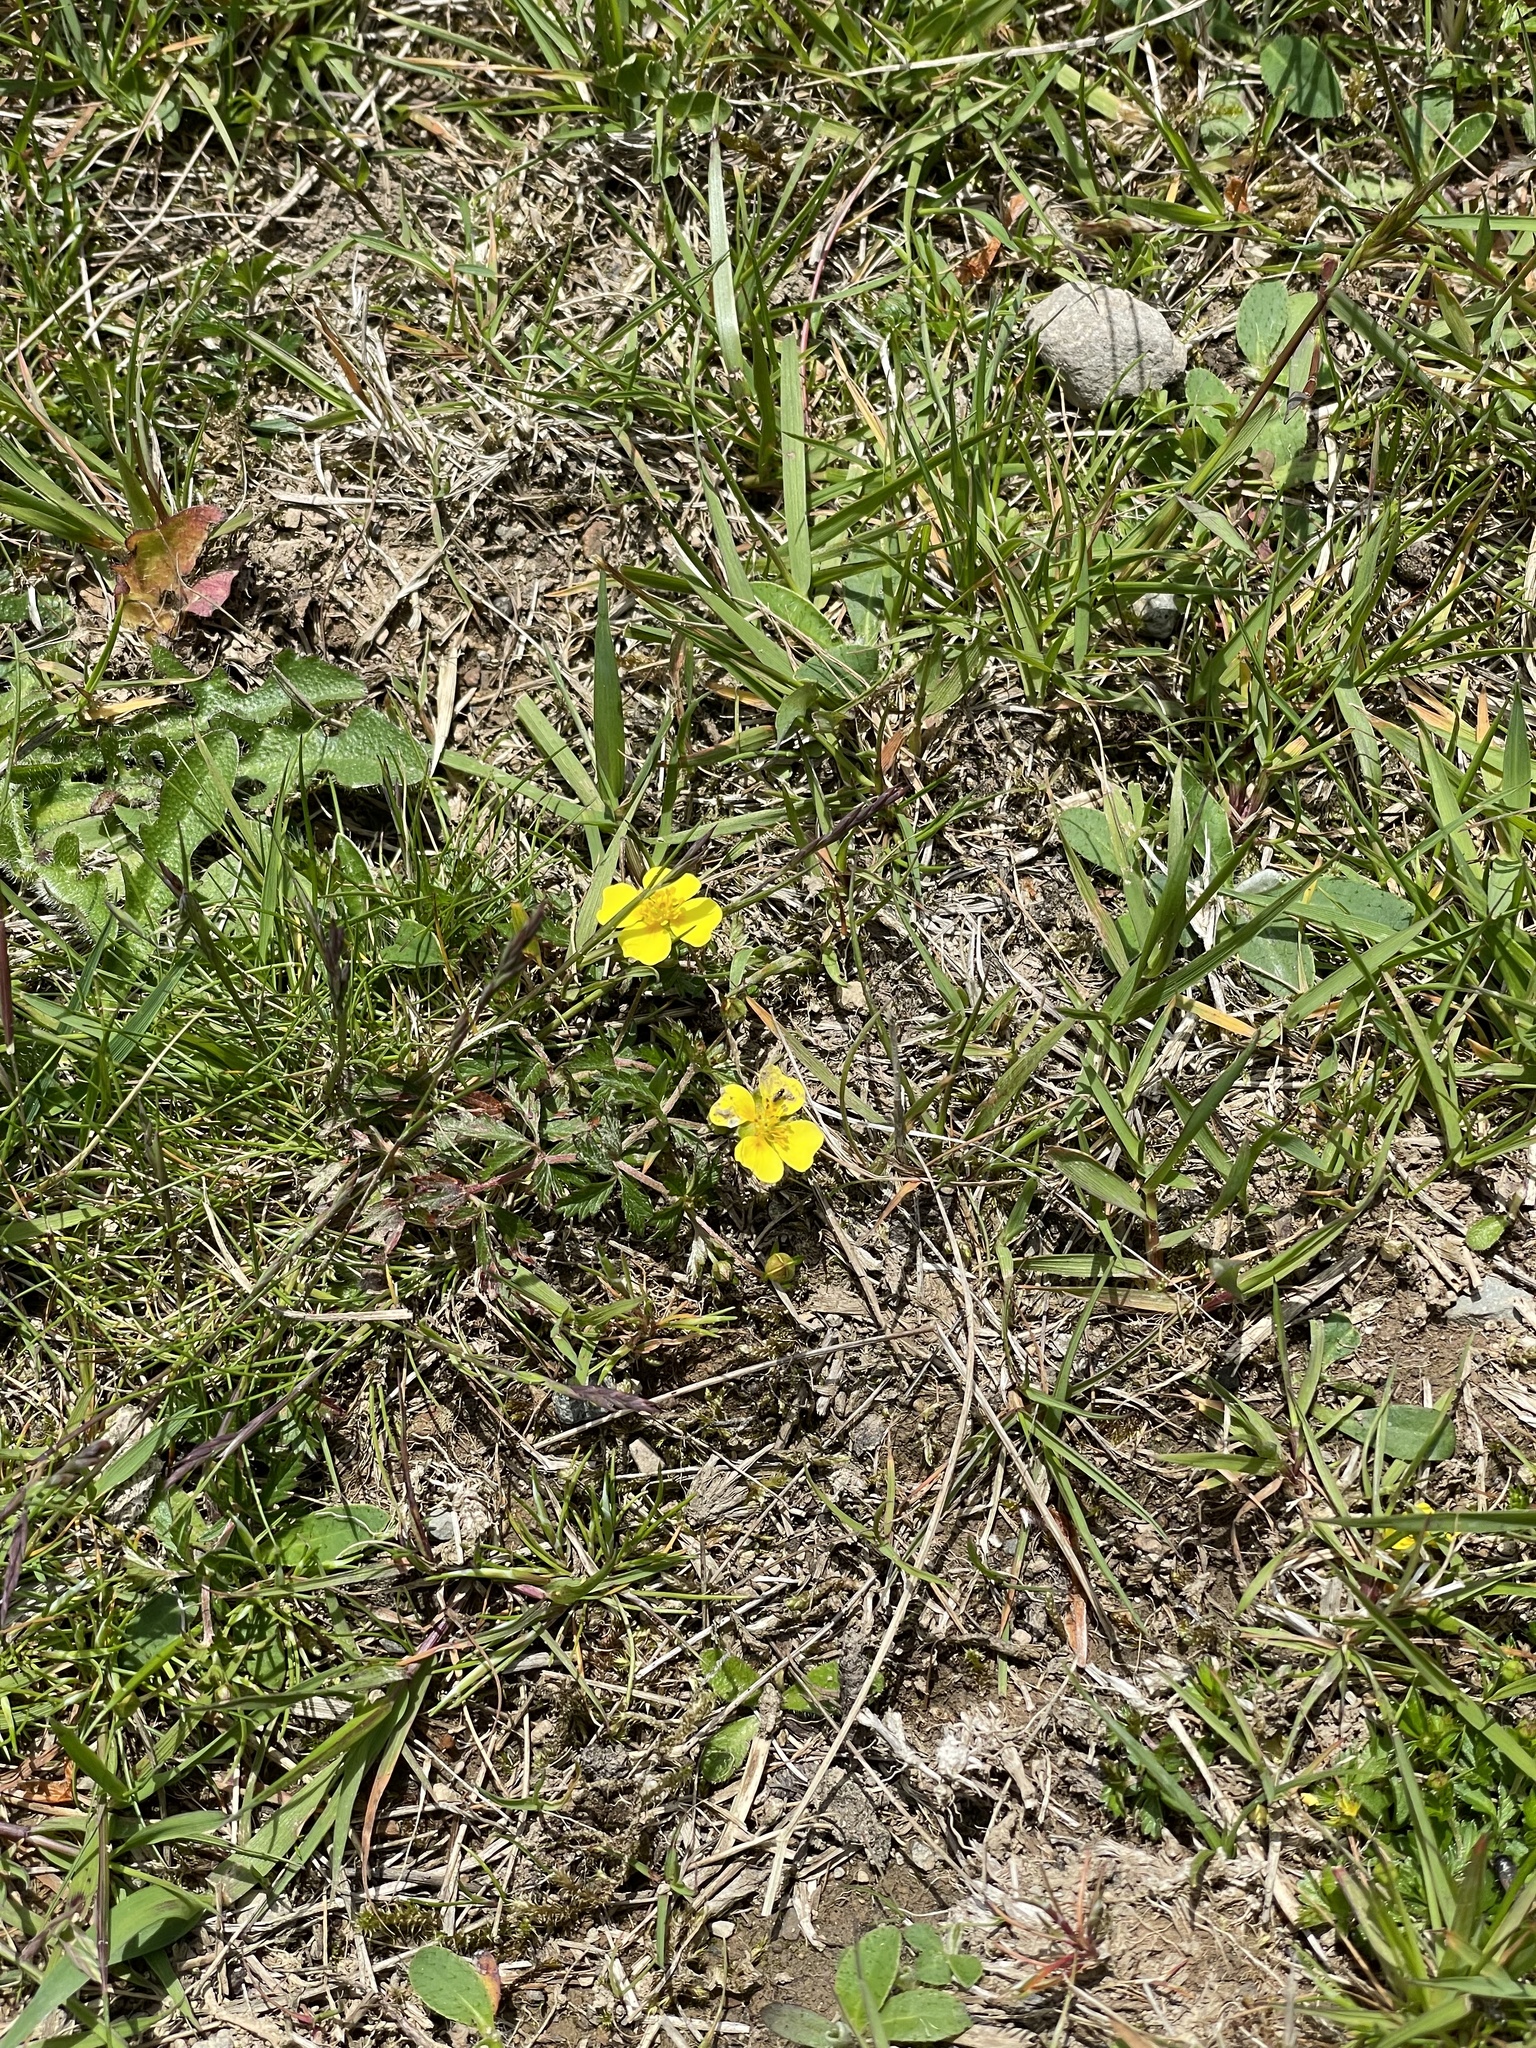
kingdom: Plantae
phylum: Tracheophyta
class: Magnoliopsida
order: Rosales
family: Rosaceae
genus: Potentilla
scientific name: Potentilla erecta
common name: Tormentil
